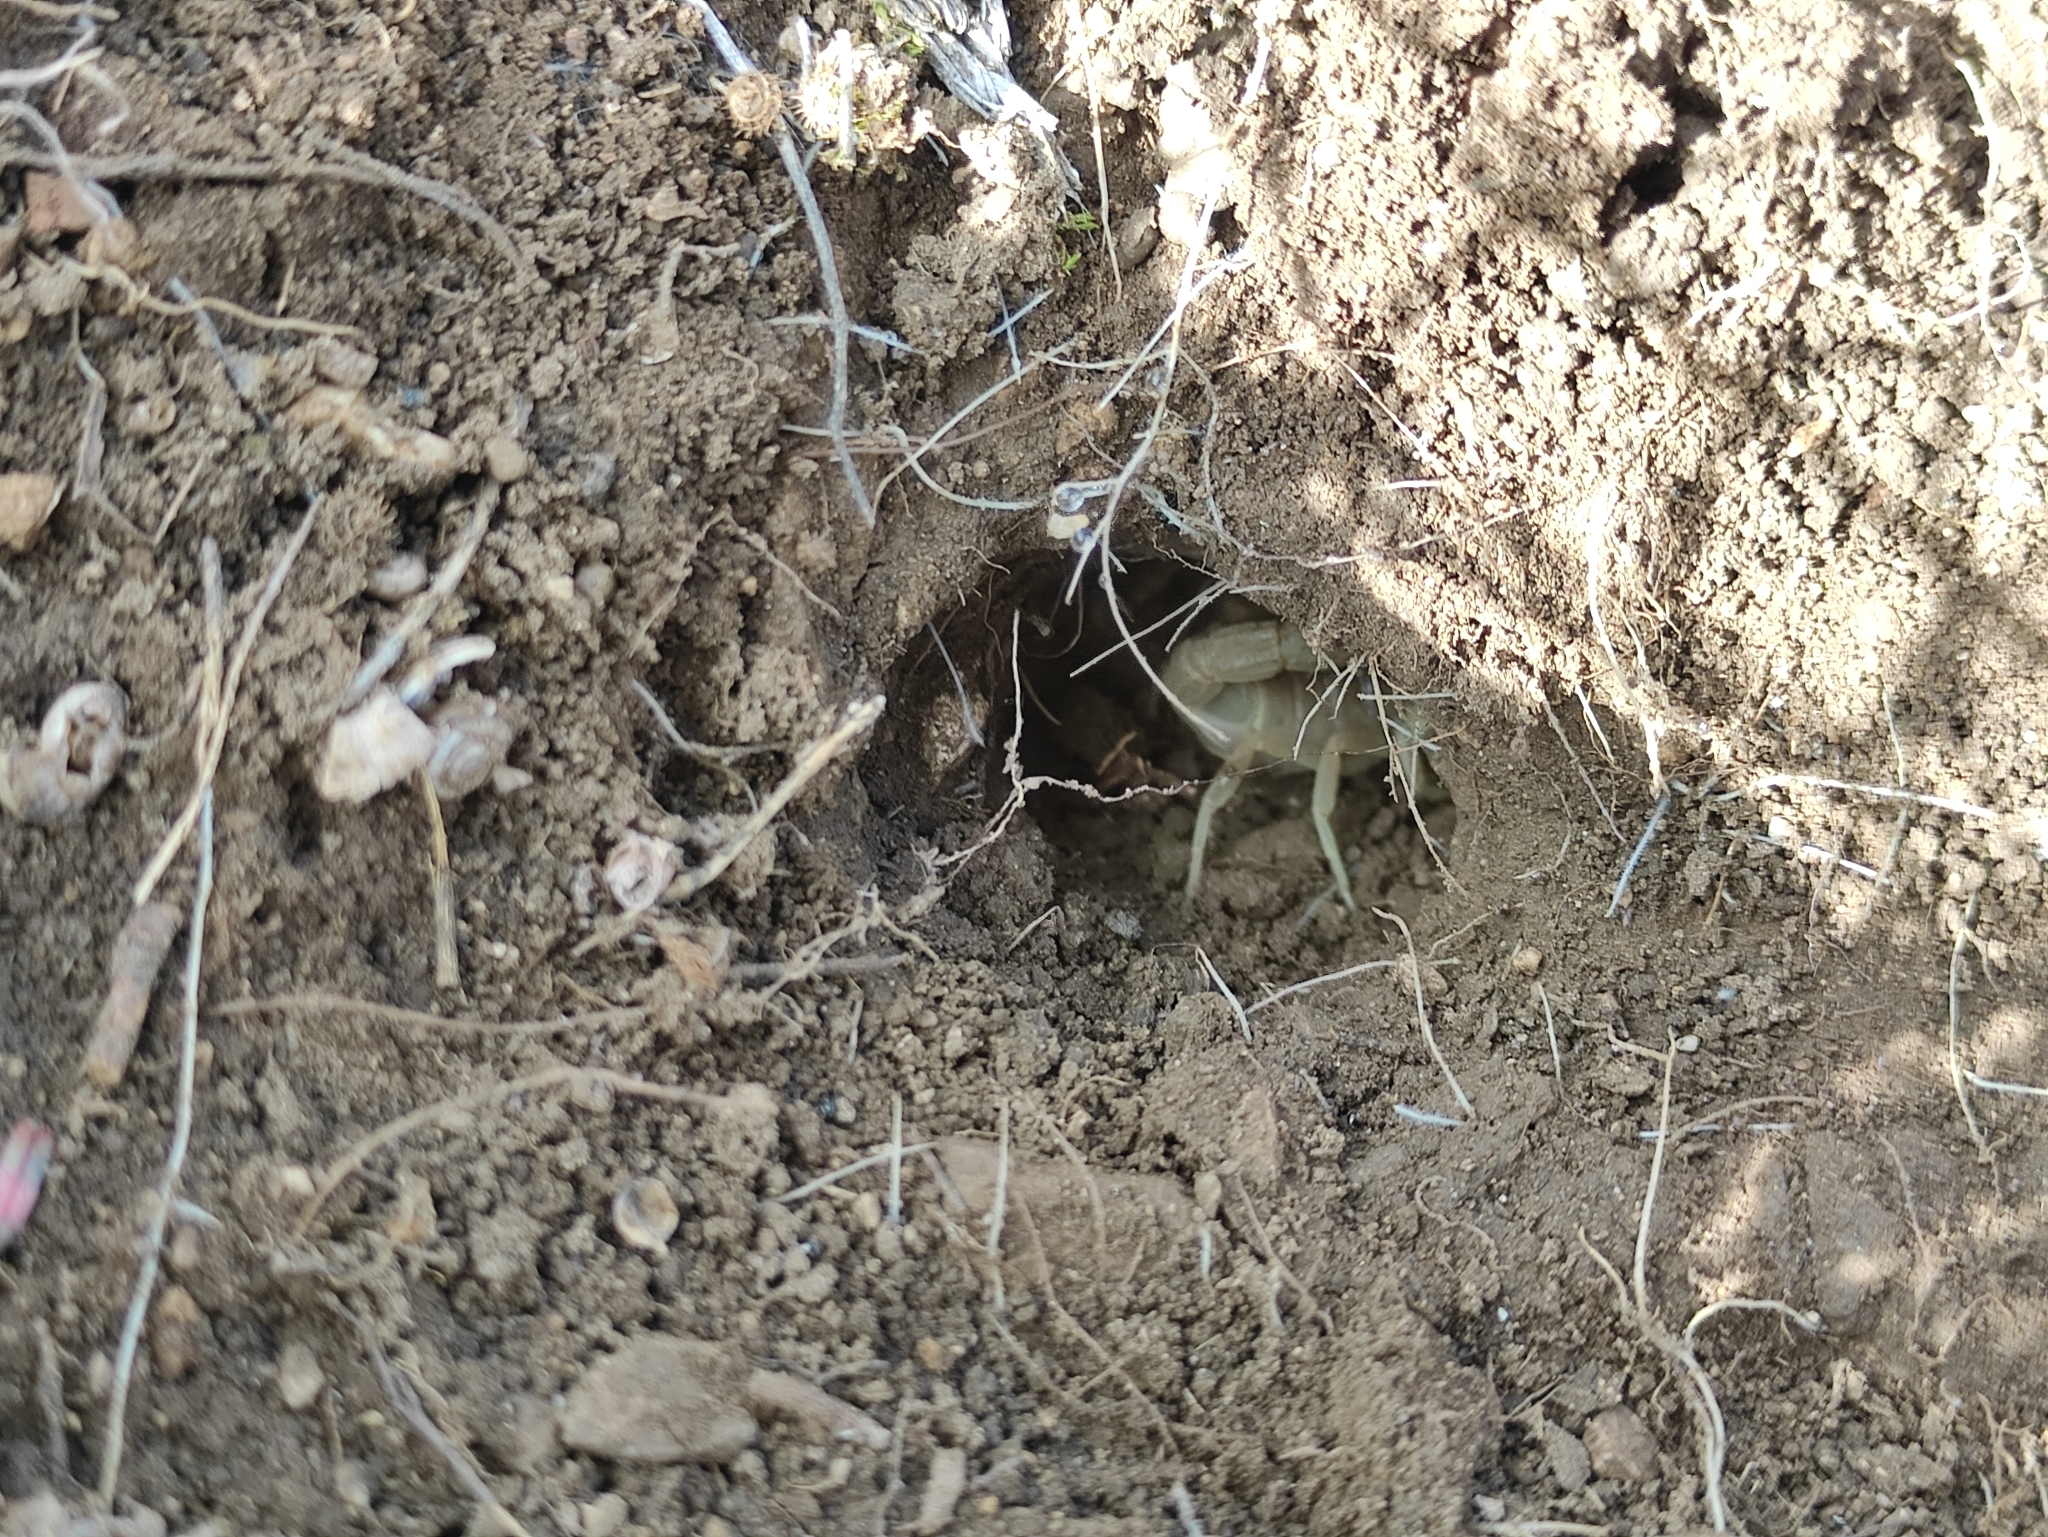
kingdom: Animalia
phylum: Arthropoda
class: Arachnida
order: Scorpiones
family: Buthidae
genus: Buthus
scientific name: Buthus balmensis
